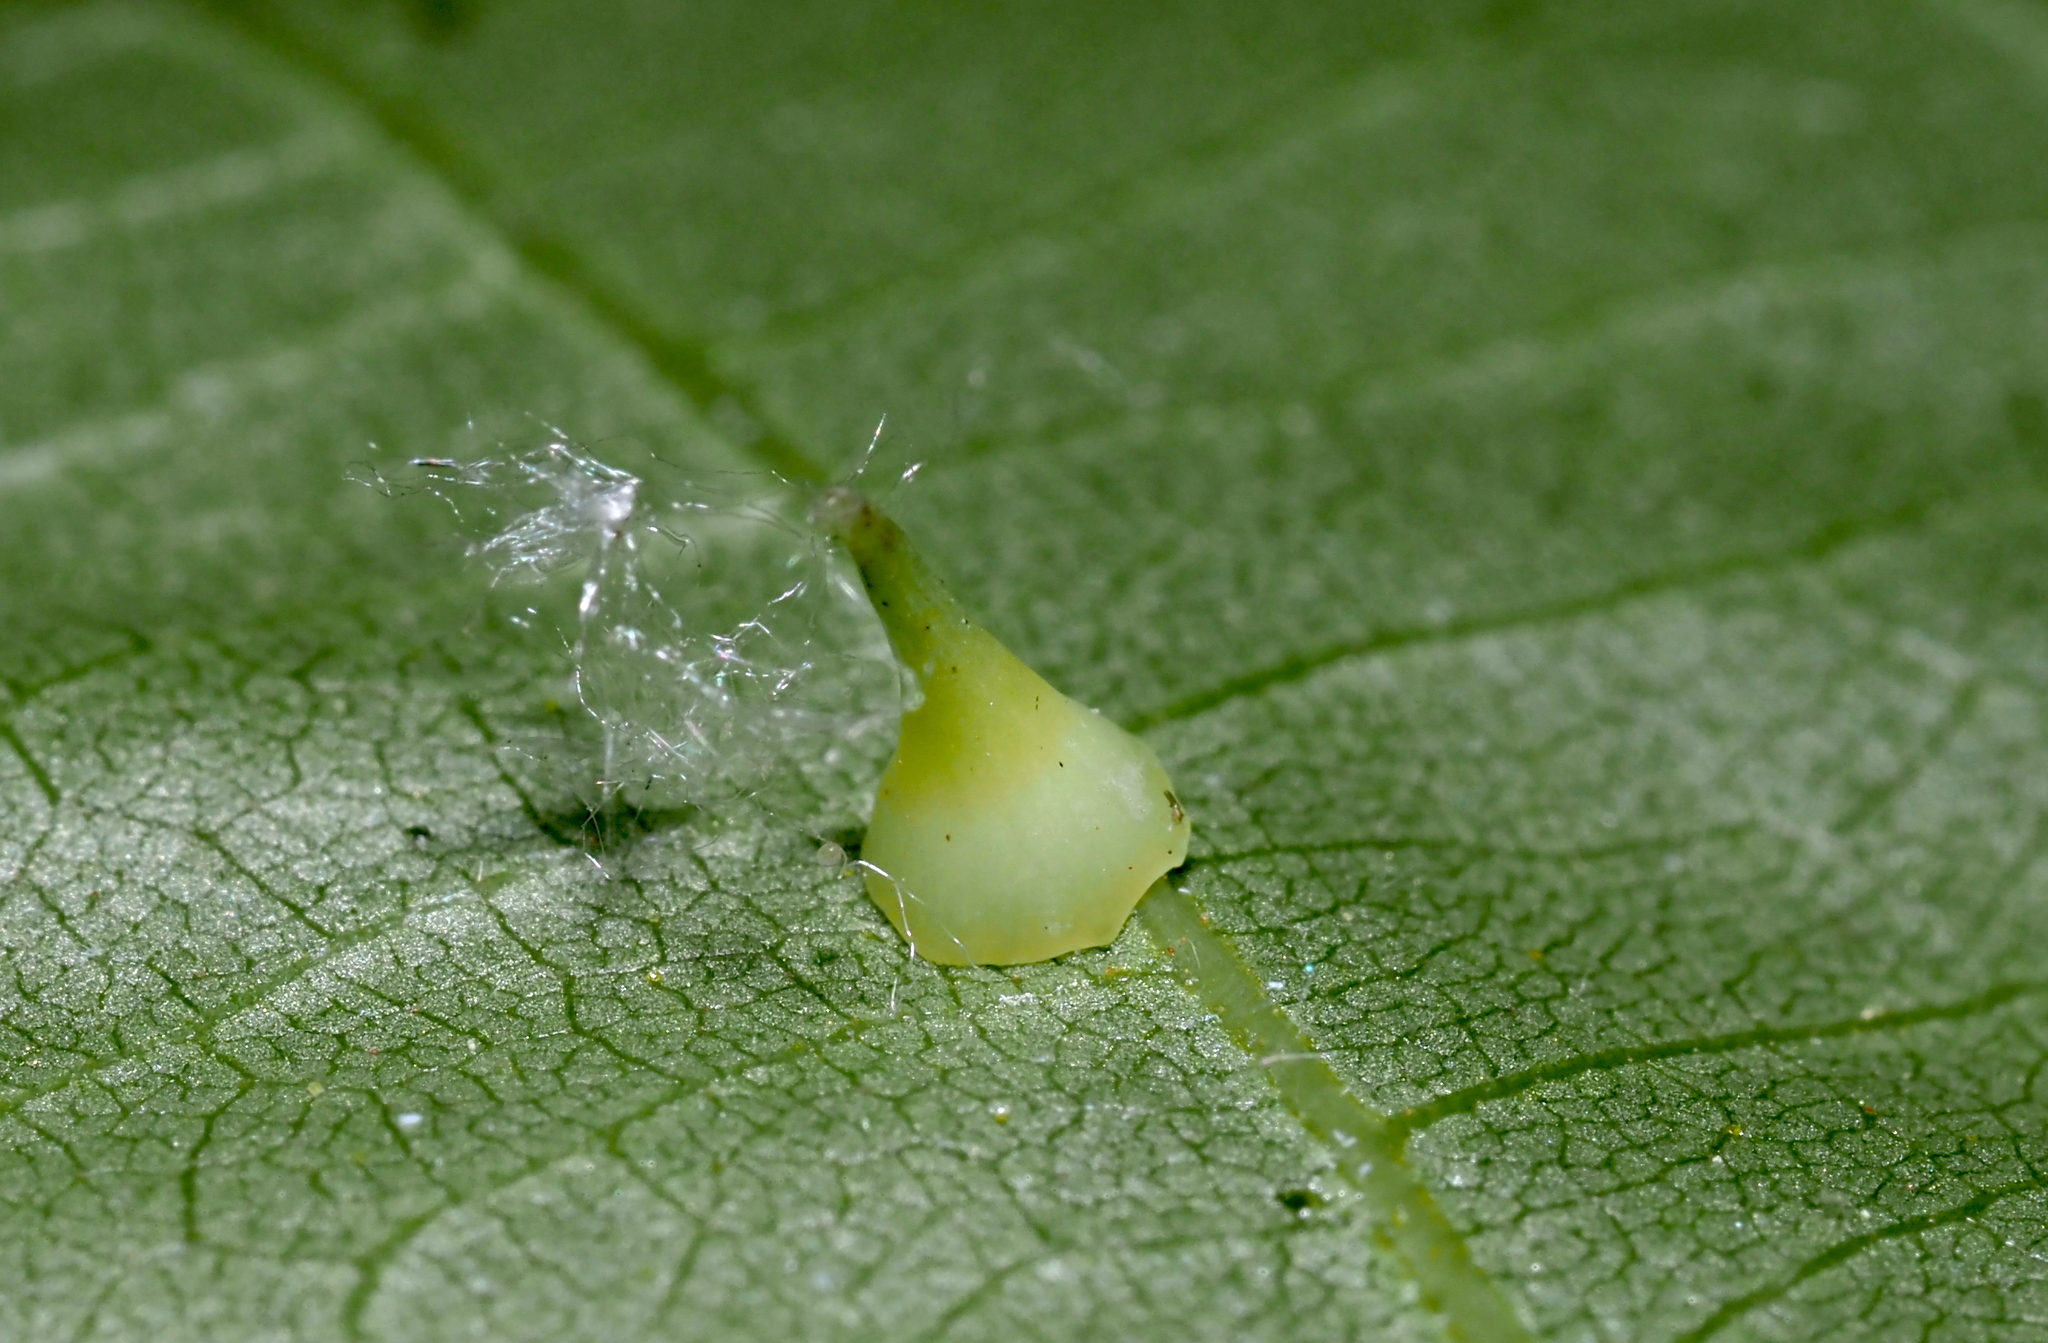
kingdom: Animalia
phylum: Arthropoda
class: Insecta
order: Diptera
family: Cecidomyiidae
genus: Caryomyia
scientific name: Caryomyia stellata
